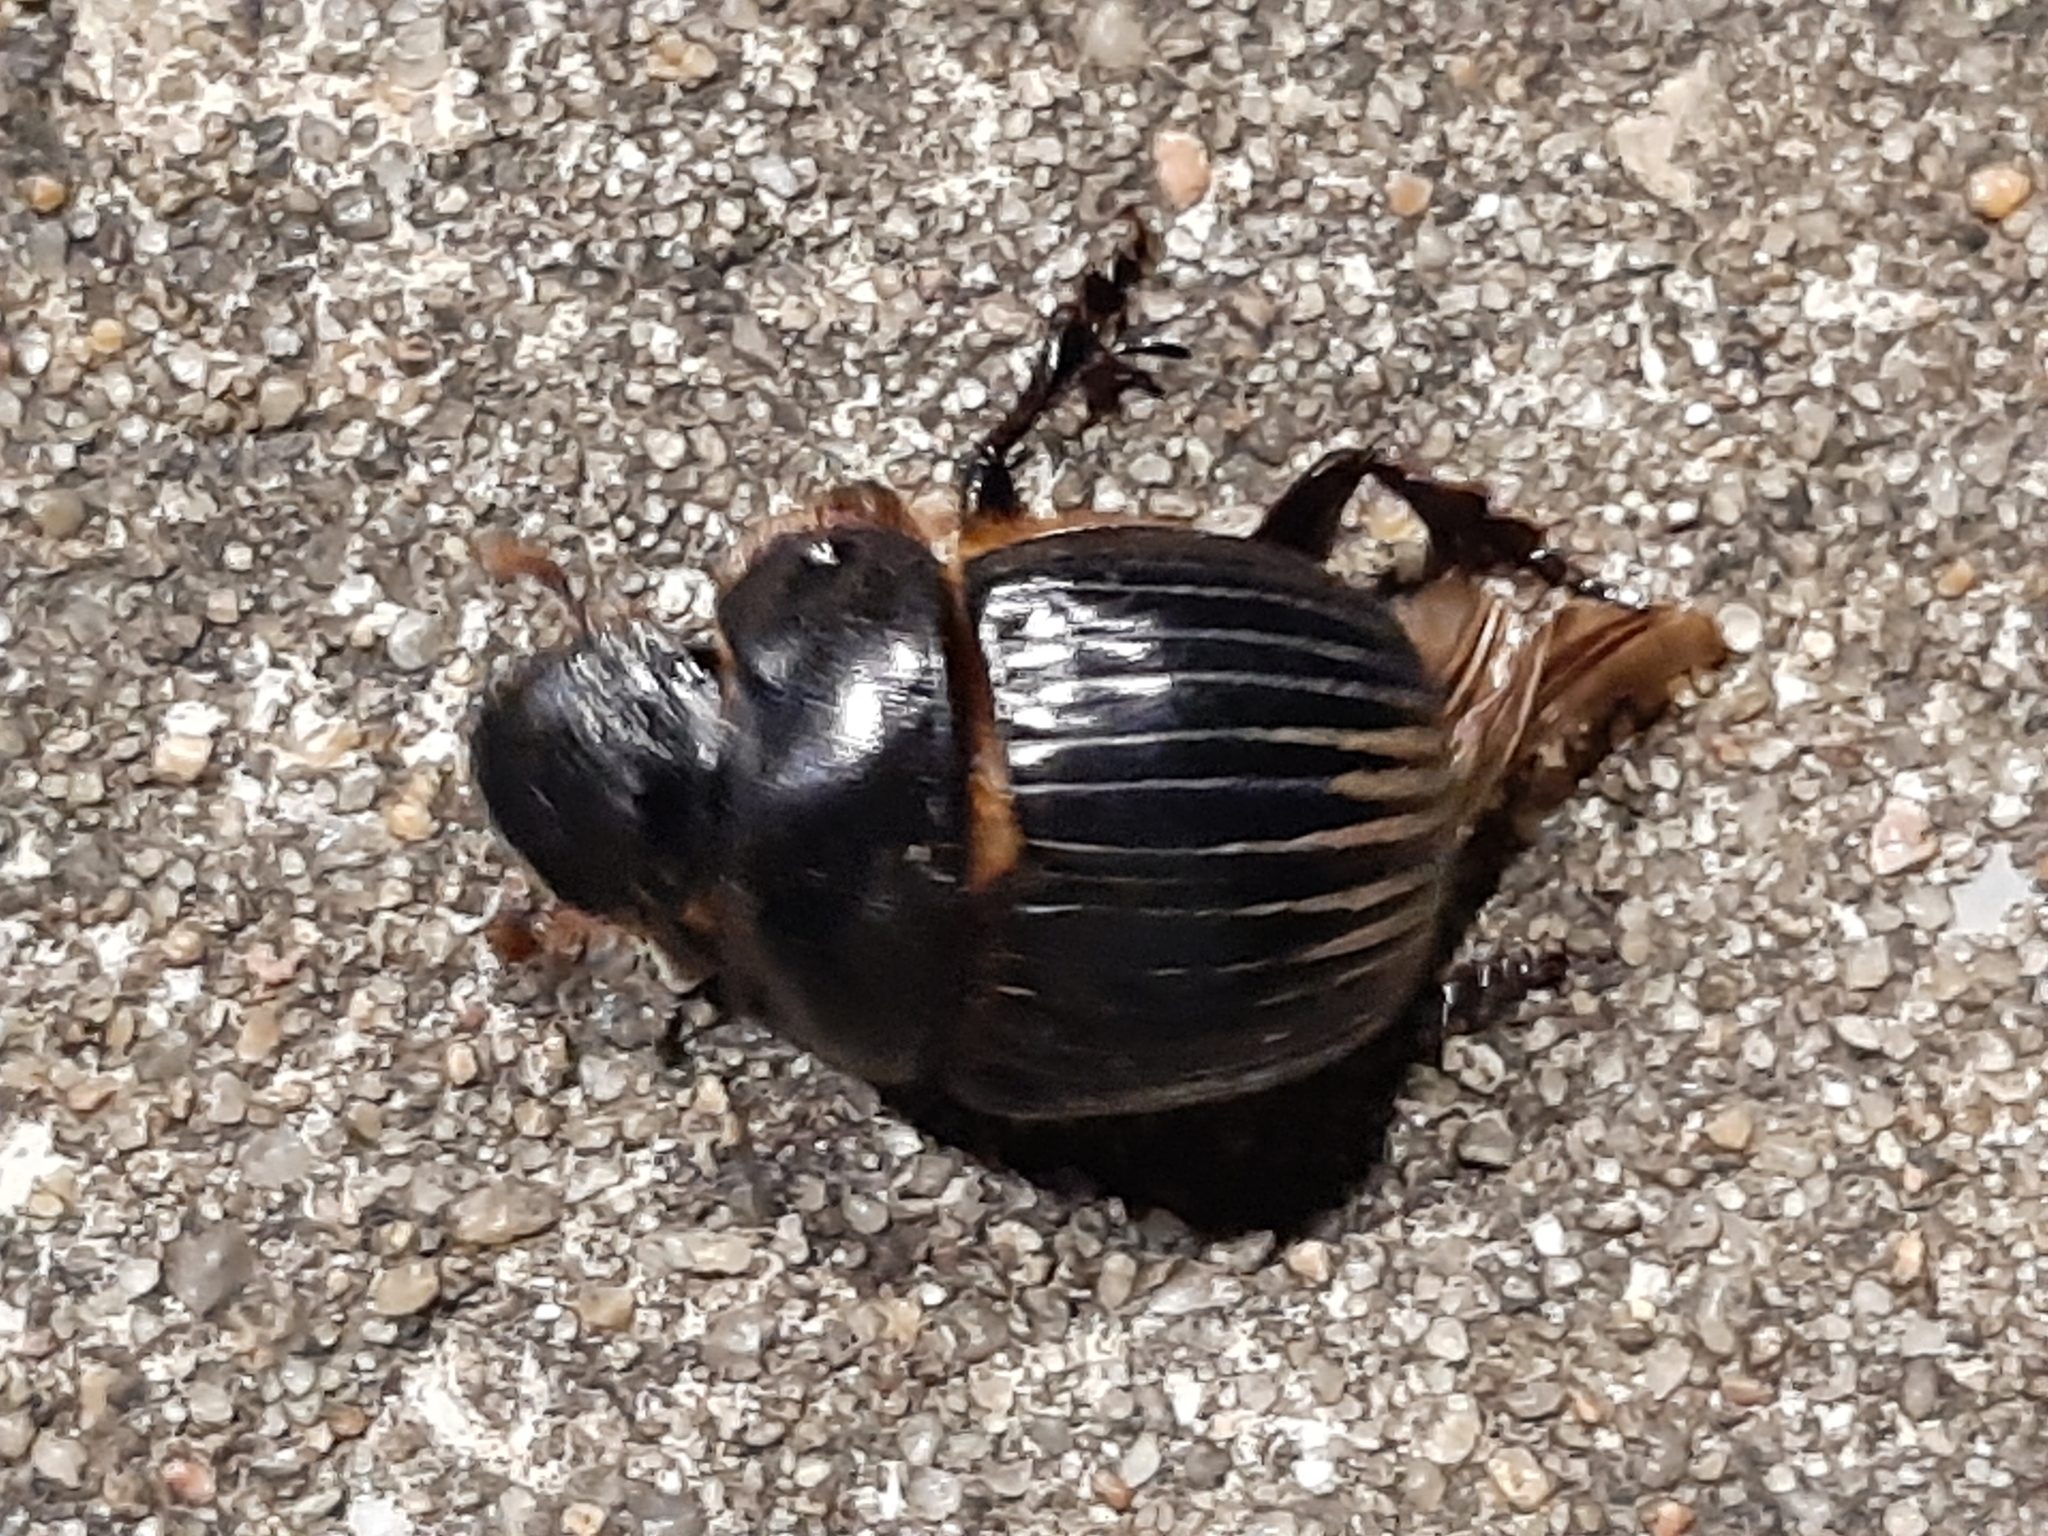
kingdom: Animalia
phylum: Arthropoda
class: Insecta
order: Coleoptera
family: Scarabaeidae
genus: Dichotomius
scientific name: Dichotomius carolinus
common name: Carolina copris
